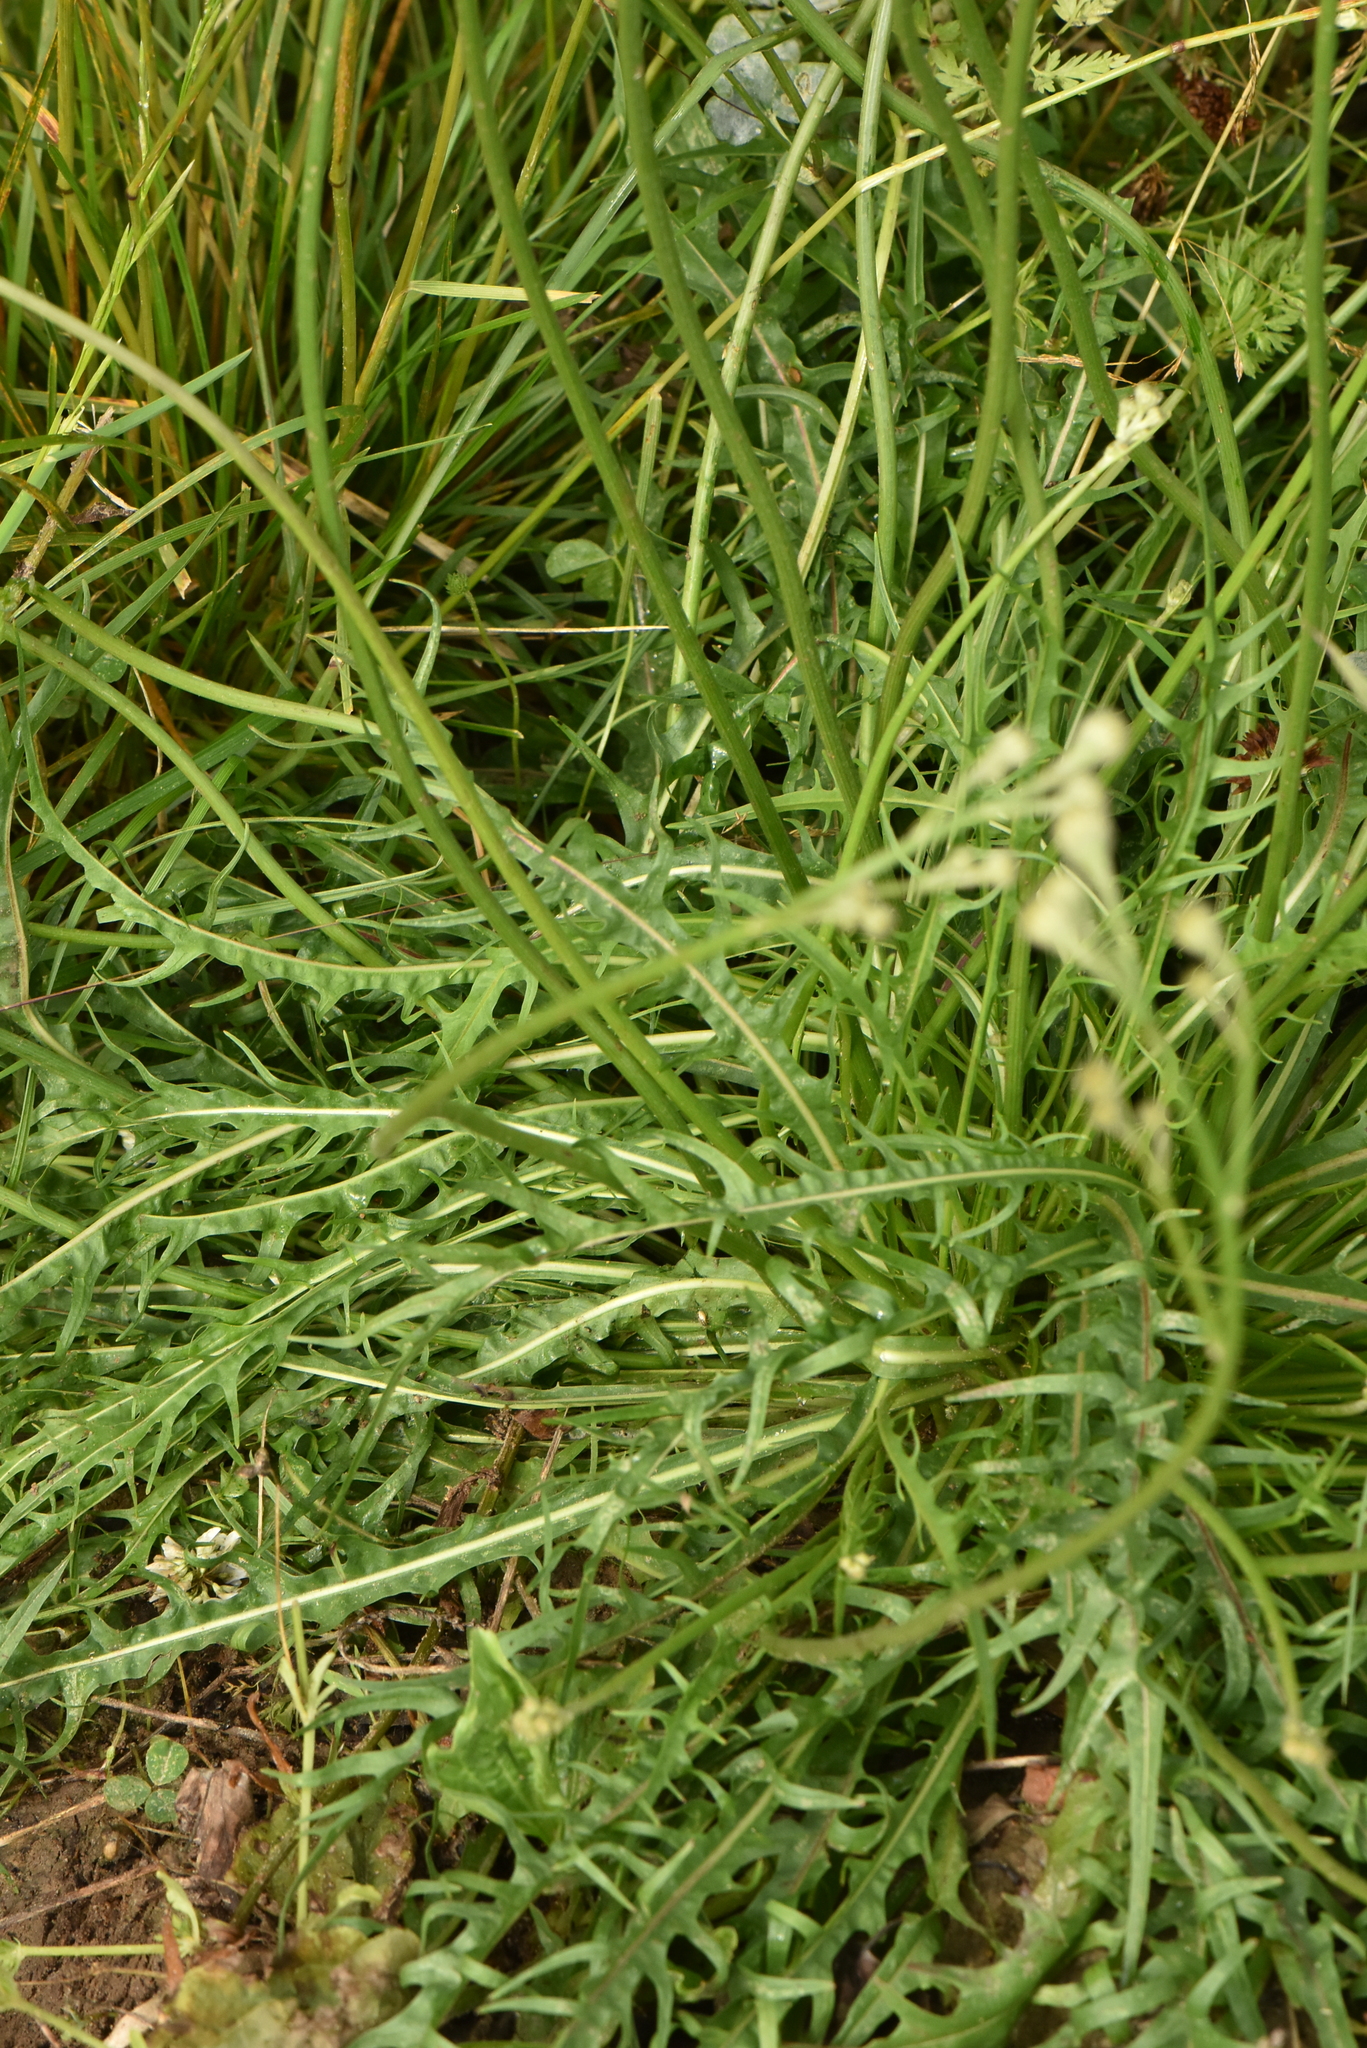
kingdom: Plantae
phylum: Tracheophyta
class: Magnoliopsida
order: Asterales
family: Asteraceae
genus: Scorzoneroides
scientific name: Scorzoneroides autumnalis
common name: Autumn hawkbit
